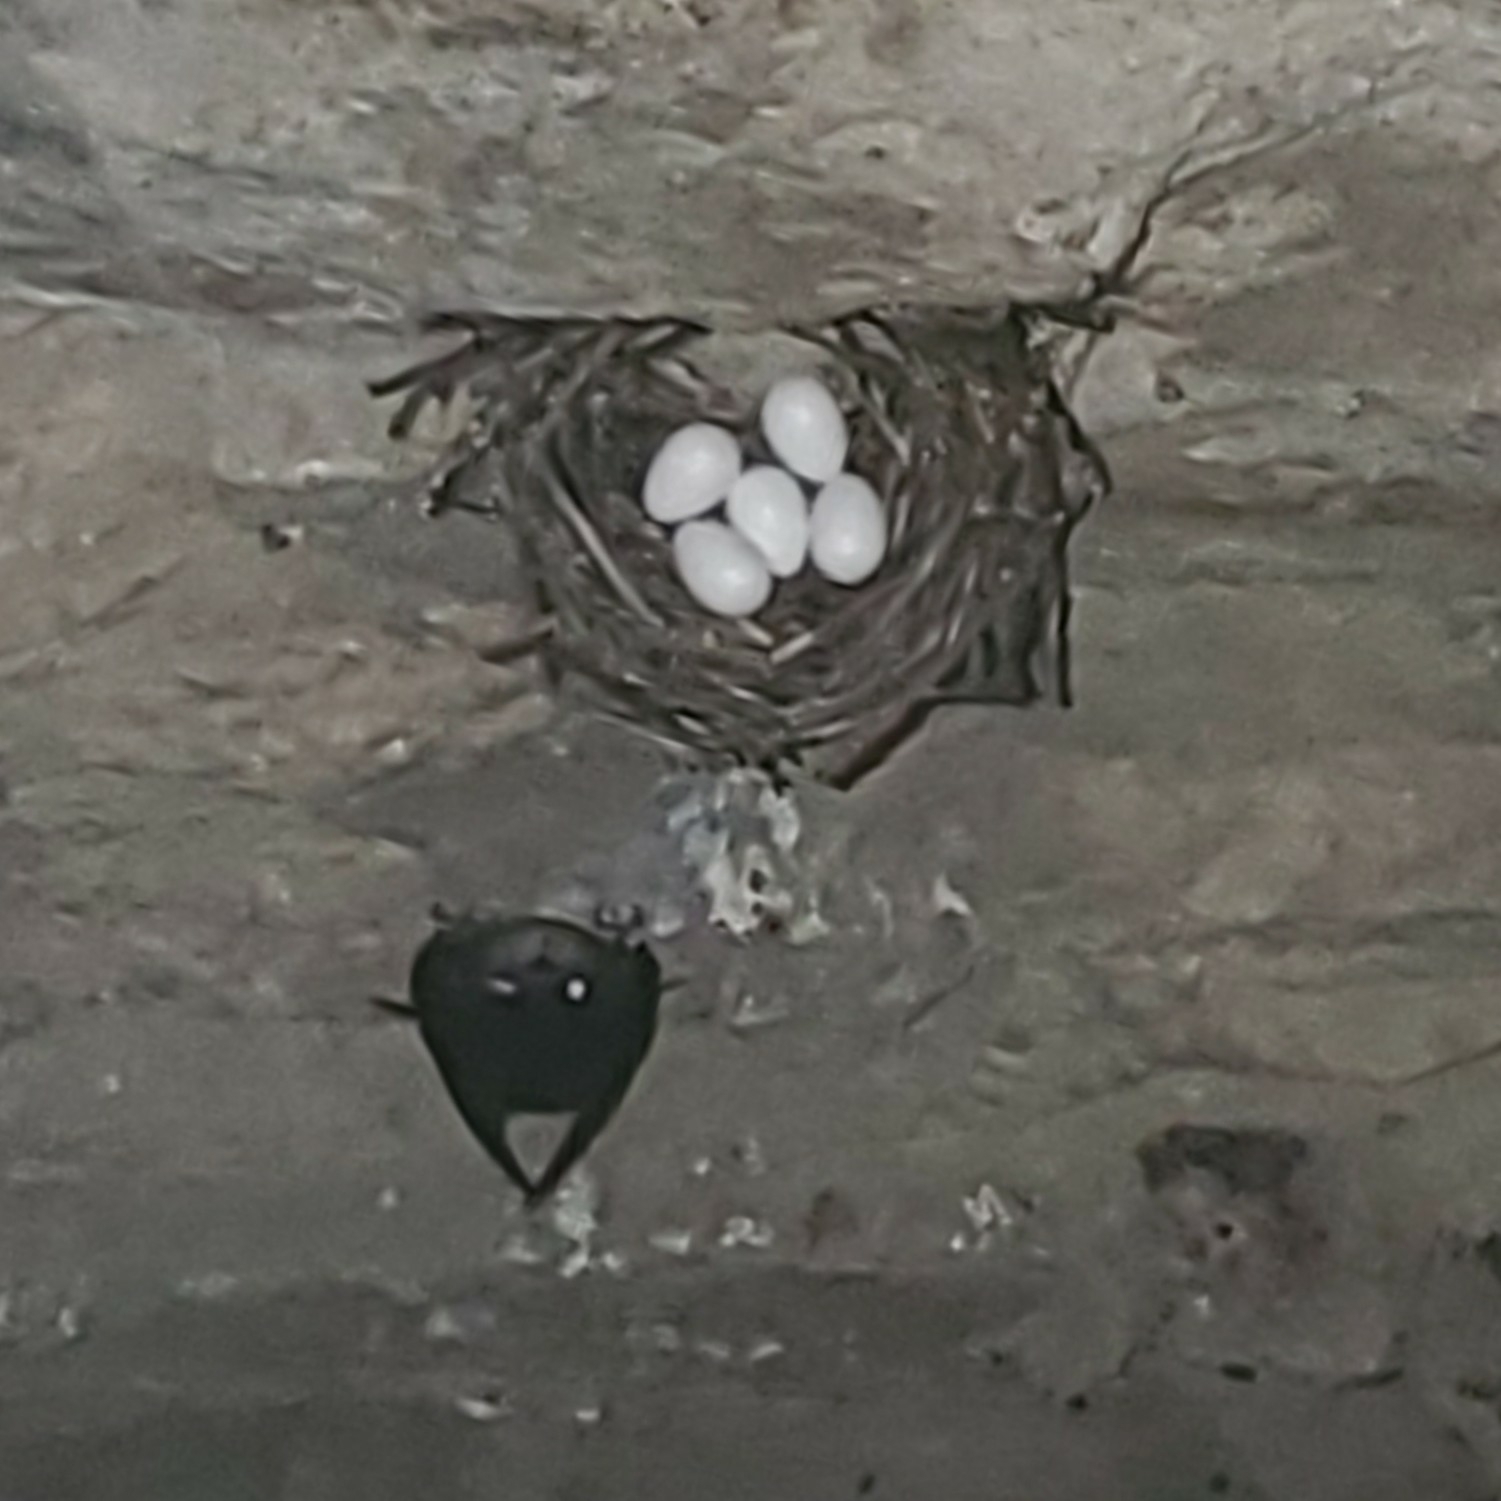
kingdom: Animalia
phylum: Chordata
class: Aves
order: Apodiformes
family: Apodidae
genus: Chaetura
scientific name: Chaetura pelagica
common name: Chimney swift
